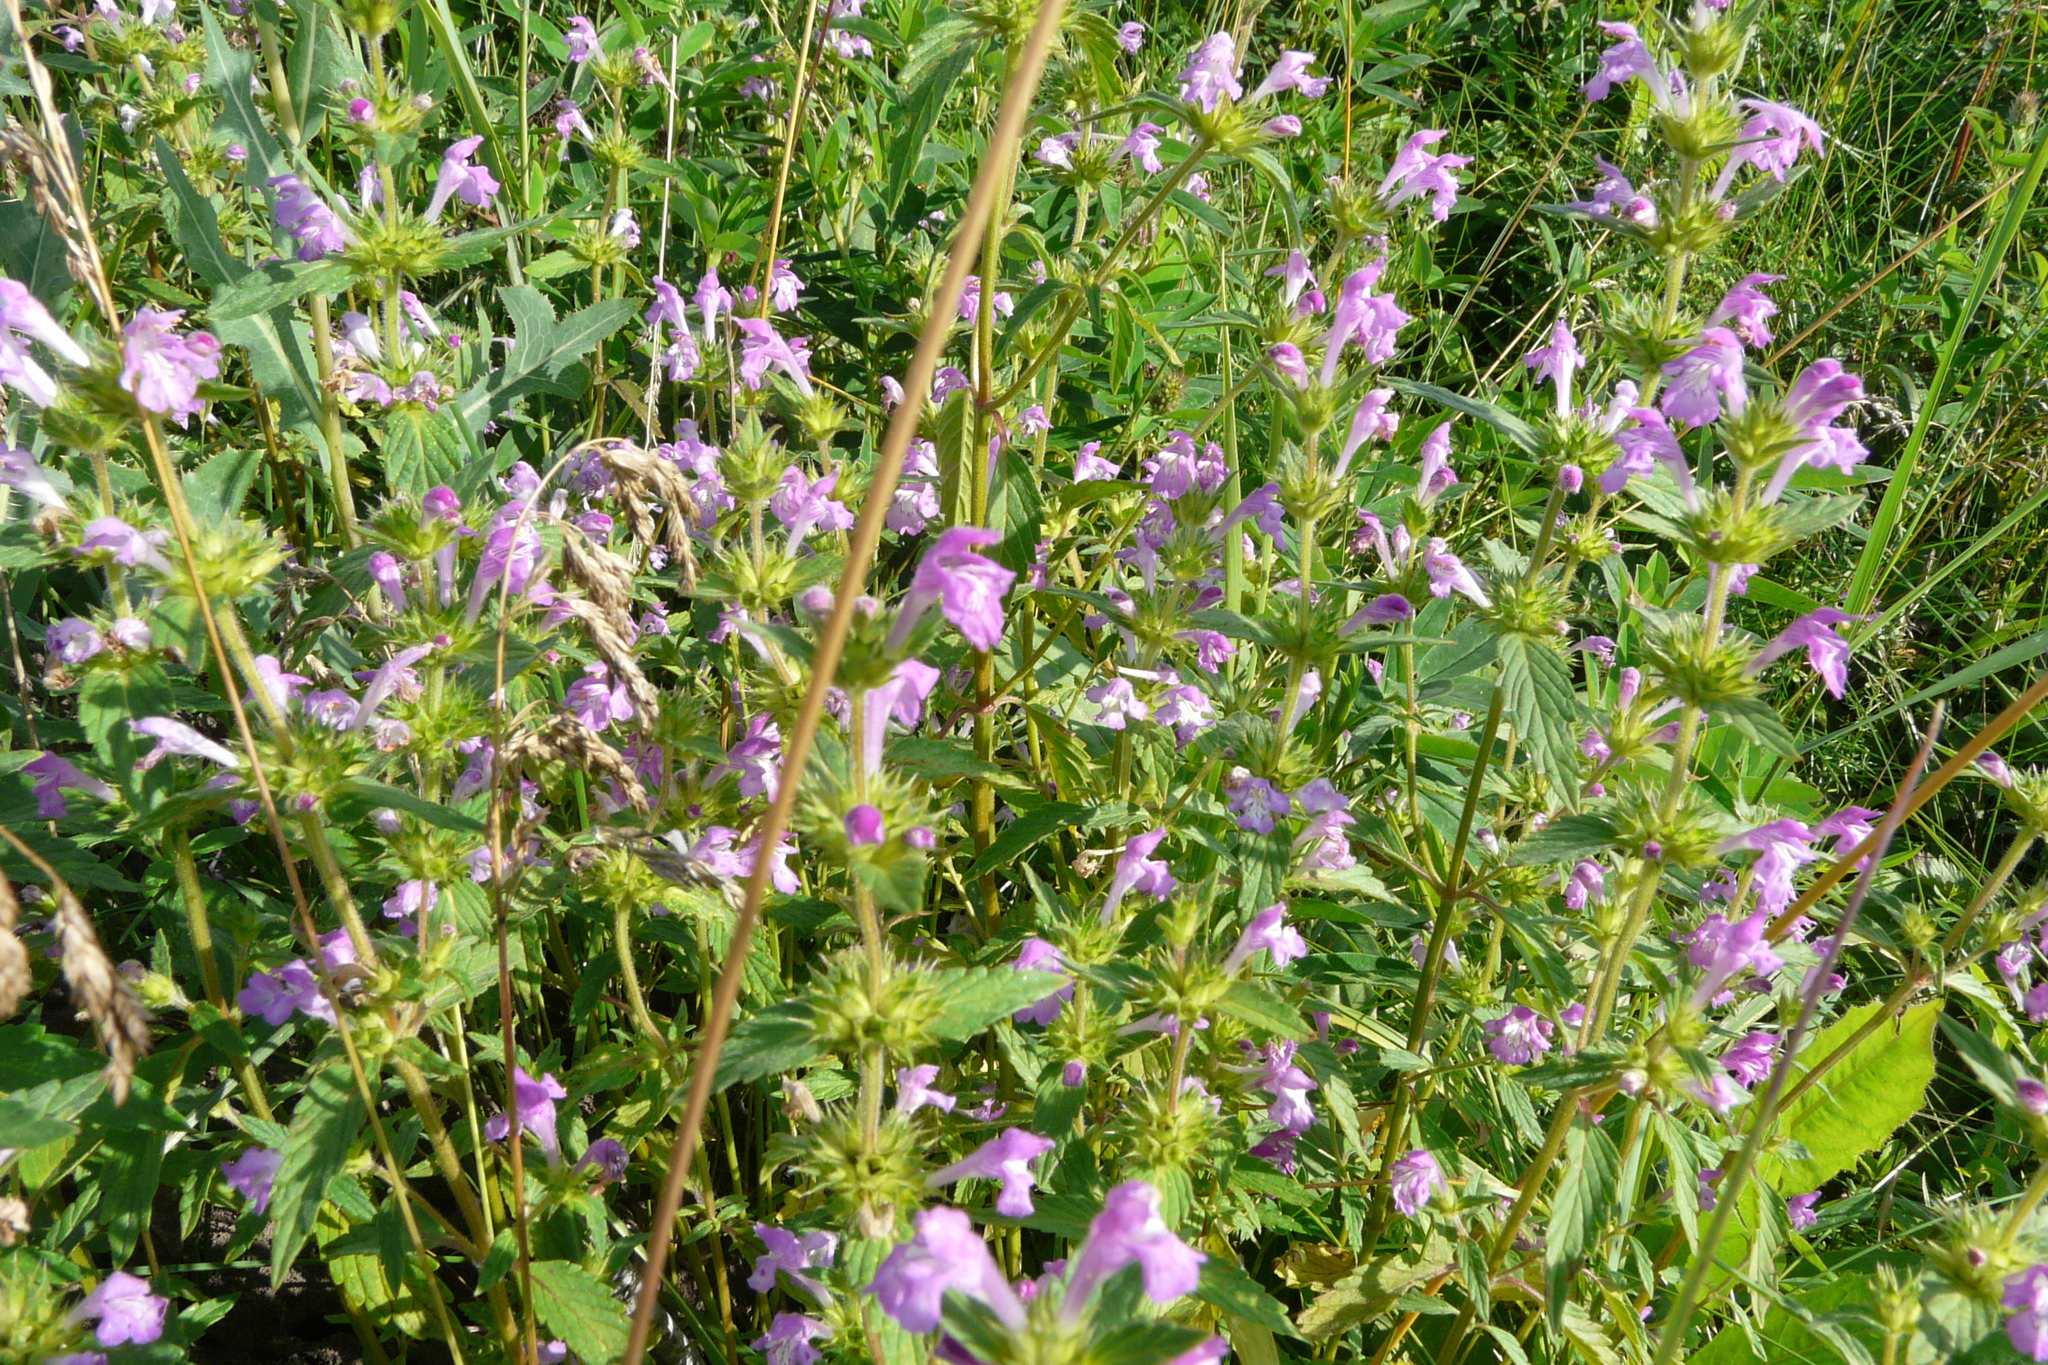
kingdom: Plantae
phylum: Tracheophyta
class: Magnoliopsida
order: Lamiales
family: Lamiaceae
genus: Galeopsis
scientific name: Galeopsis ladanum
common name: Broad-leaved hemp-nettle
